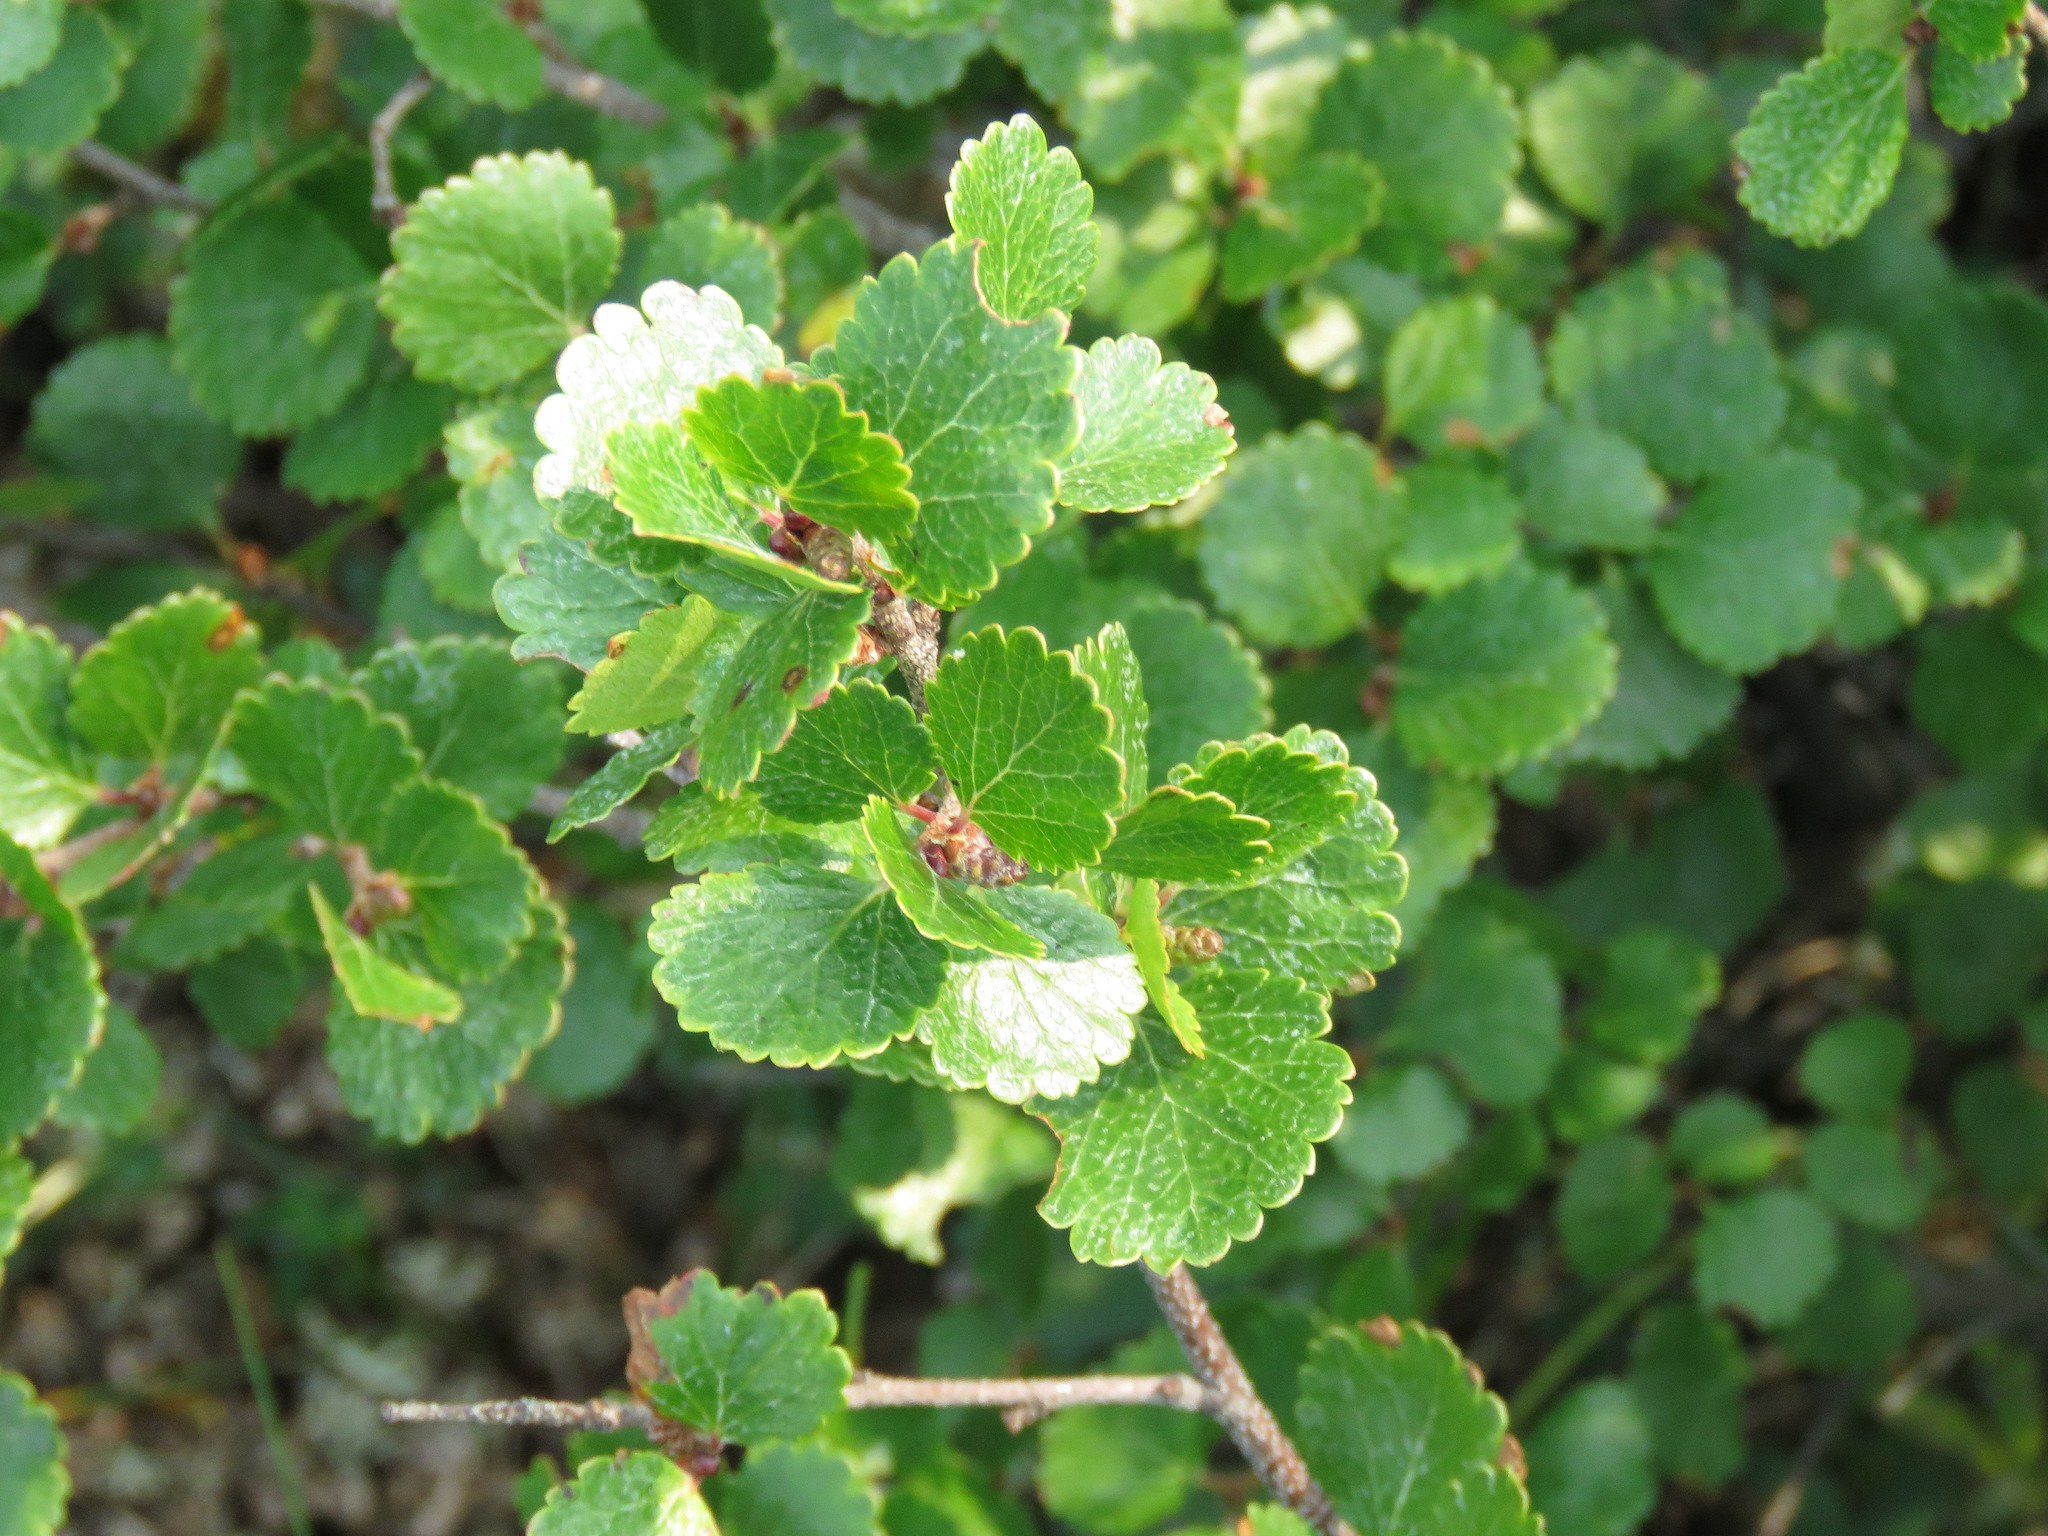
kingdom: Plantae
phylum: Tracheophyta
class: Magnoliopsida
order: Fagales
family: Betulaceae
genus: Betula
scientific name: Betula glandulosa
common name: Dwarf birch
